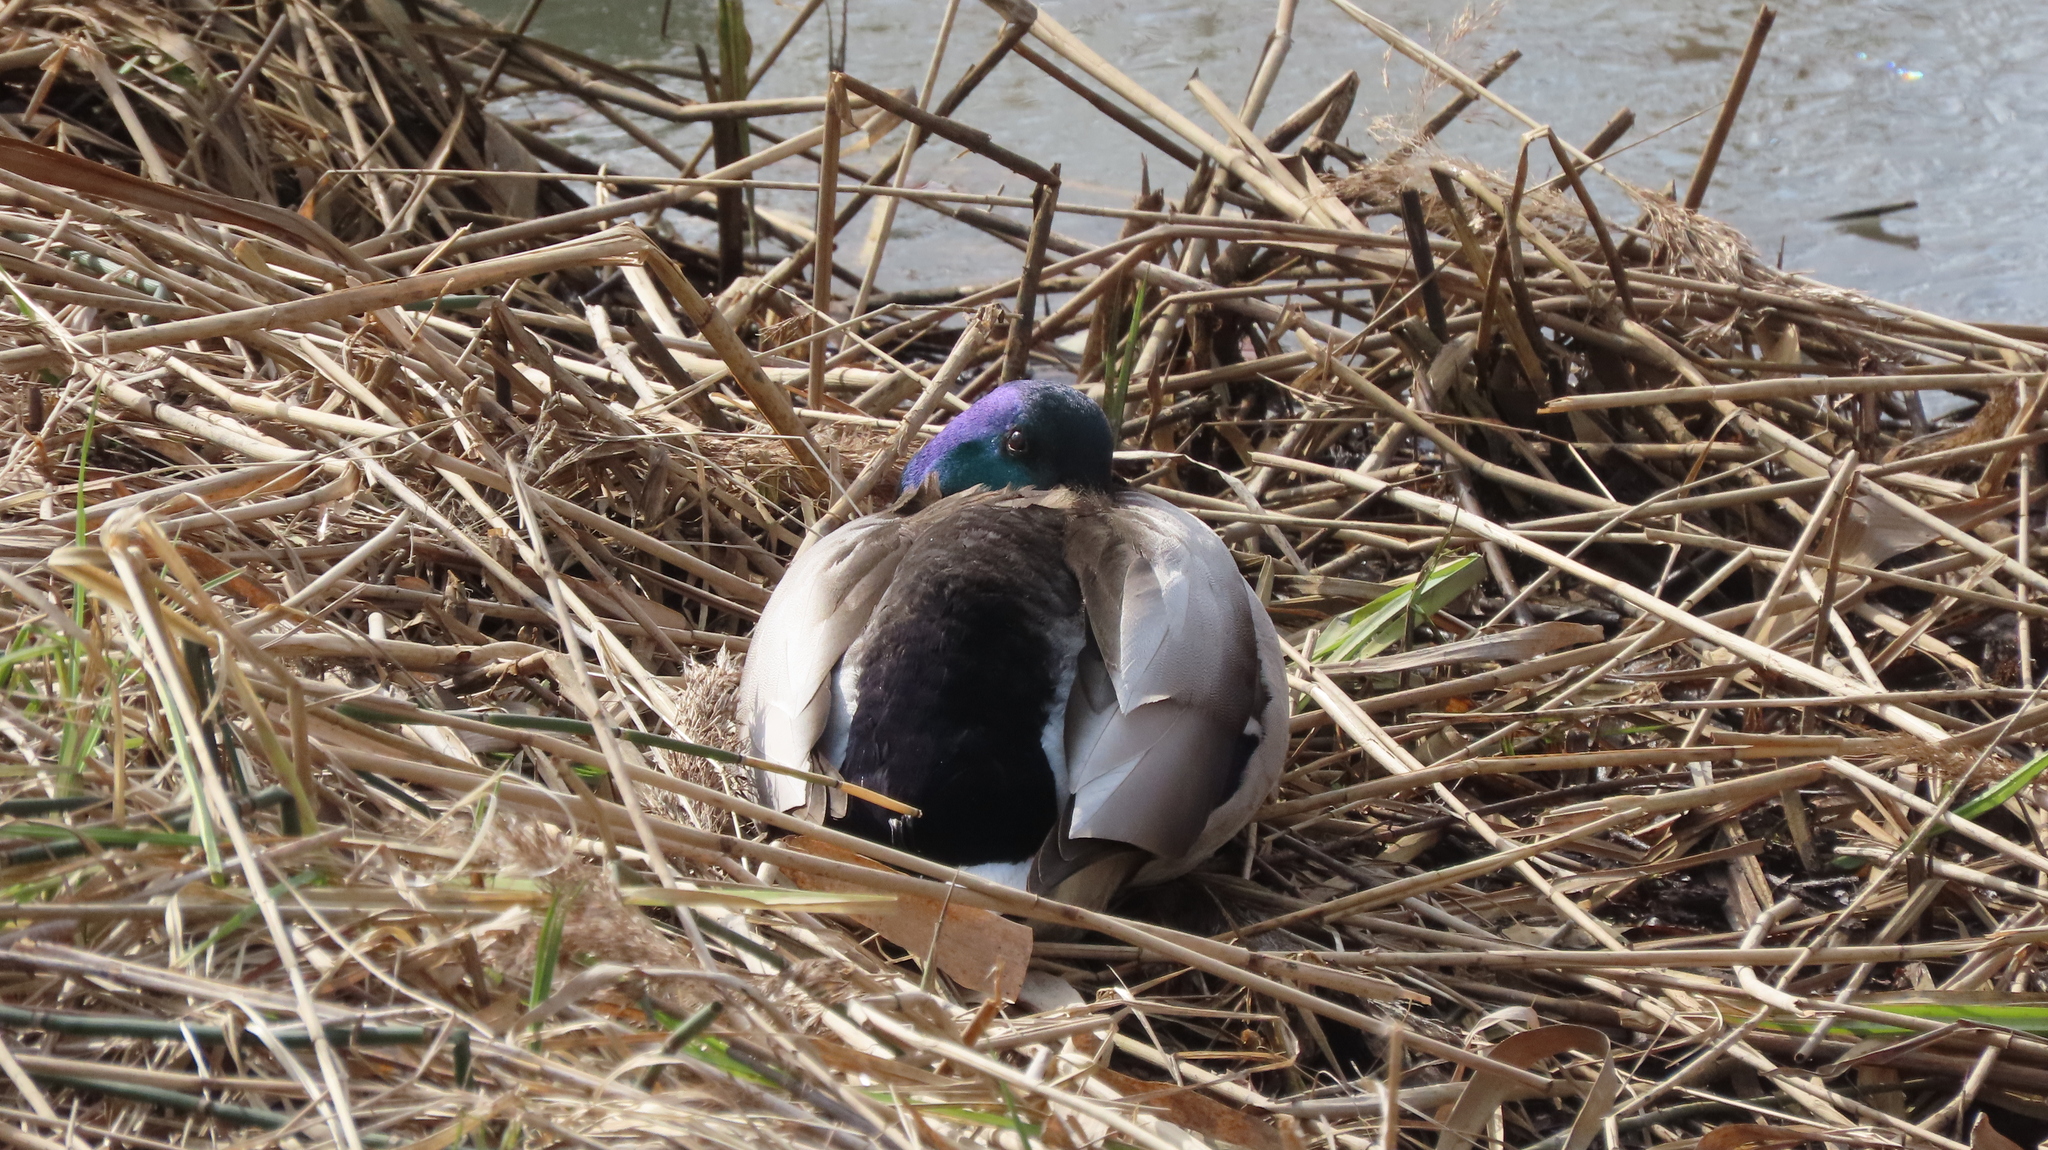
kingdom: Animalia
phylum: Chordata
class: Aves
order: Anseriformes
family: Anatidae
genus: Anas
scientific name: Anas platyrhynchos
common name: Mallard
